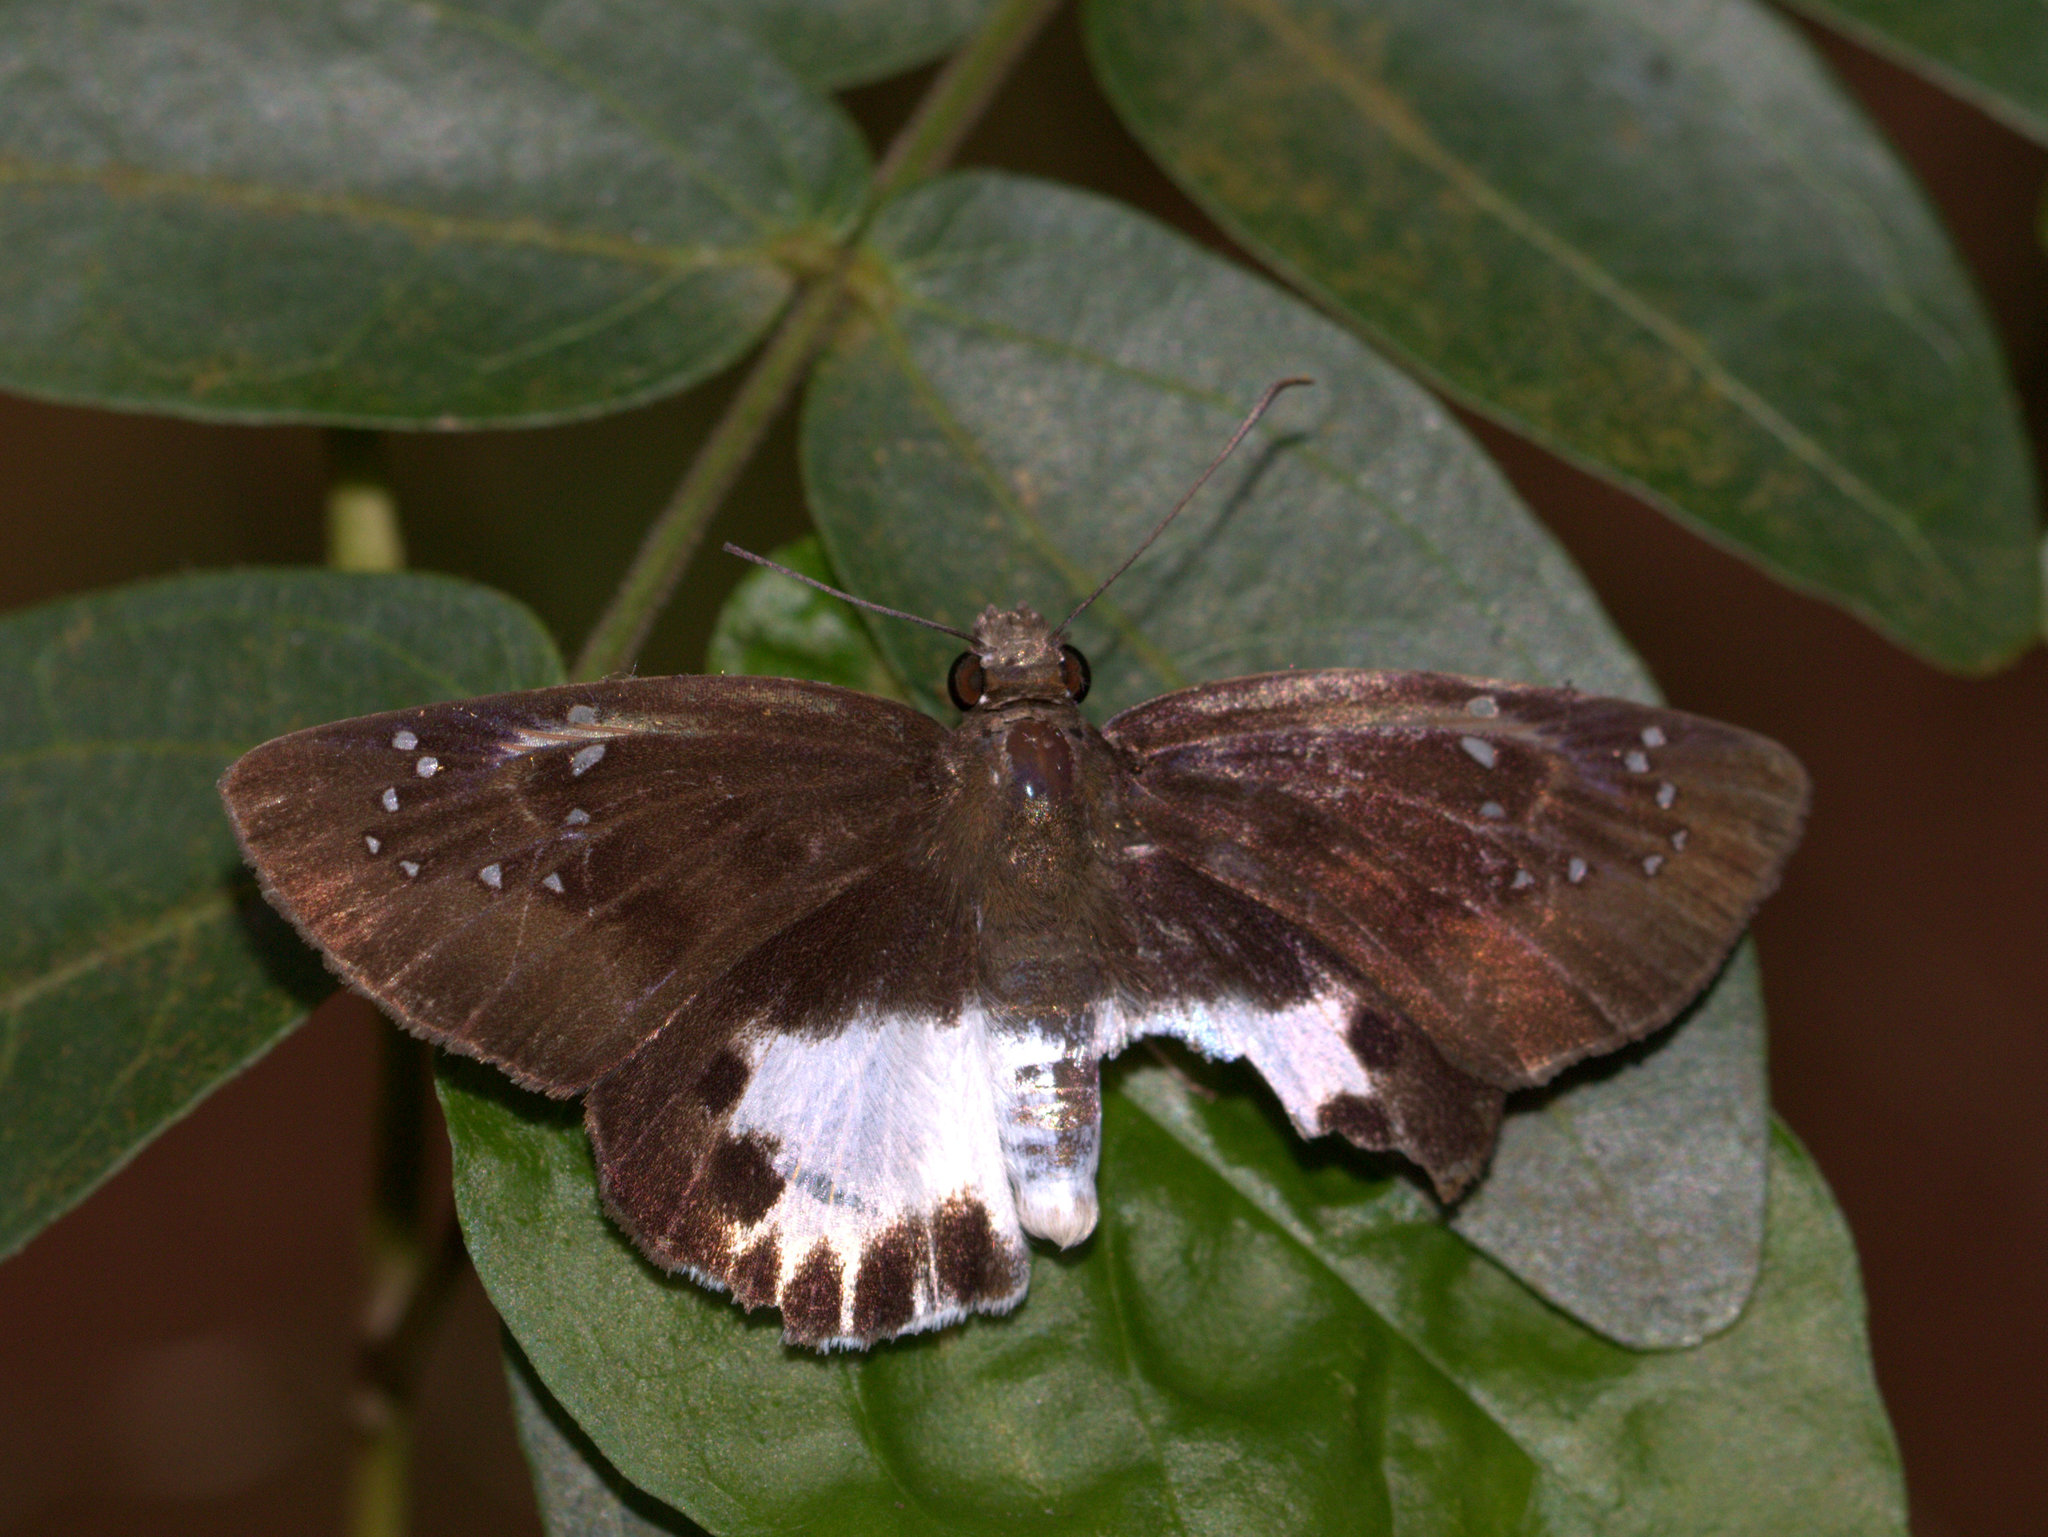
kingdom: Animalia
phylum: Arthropoda
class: Insecta
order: Lepidoptera
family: Hesperiidae
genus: Tagiades
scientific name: Tagiades litigiosa
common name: Water snow flat
